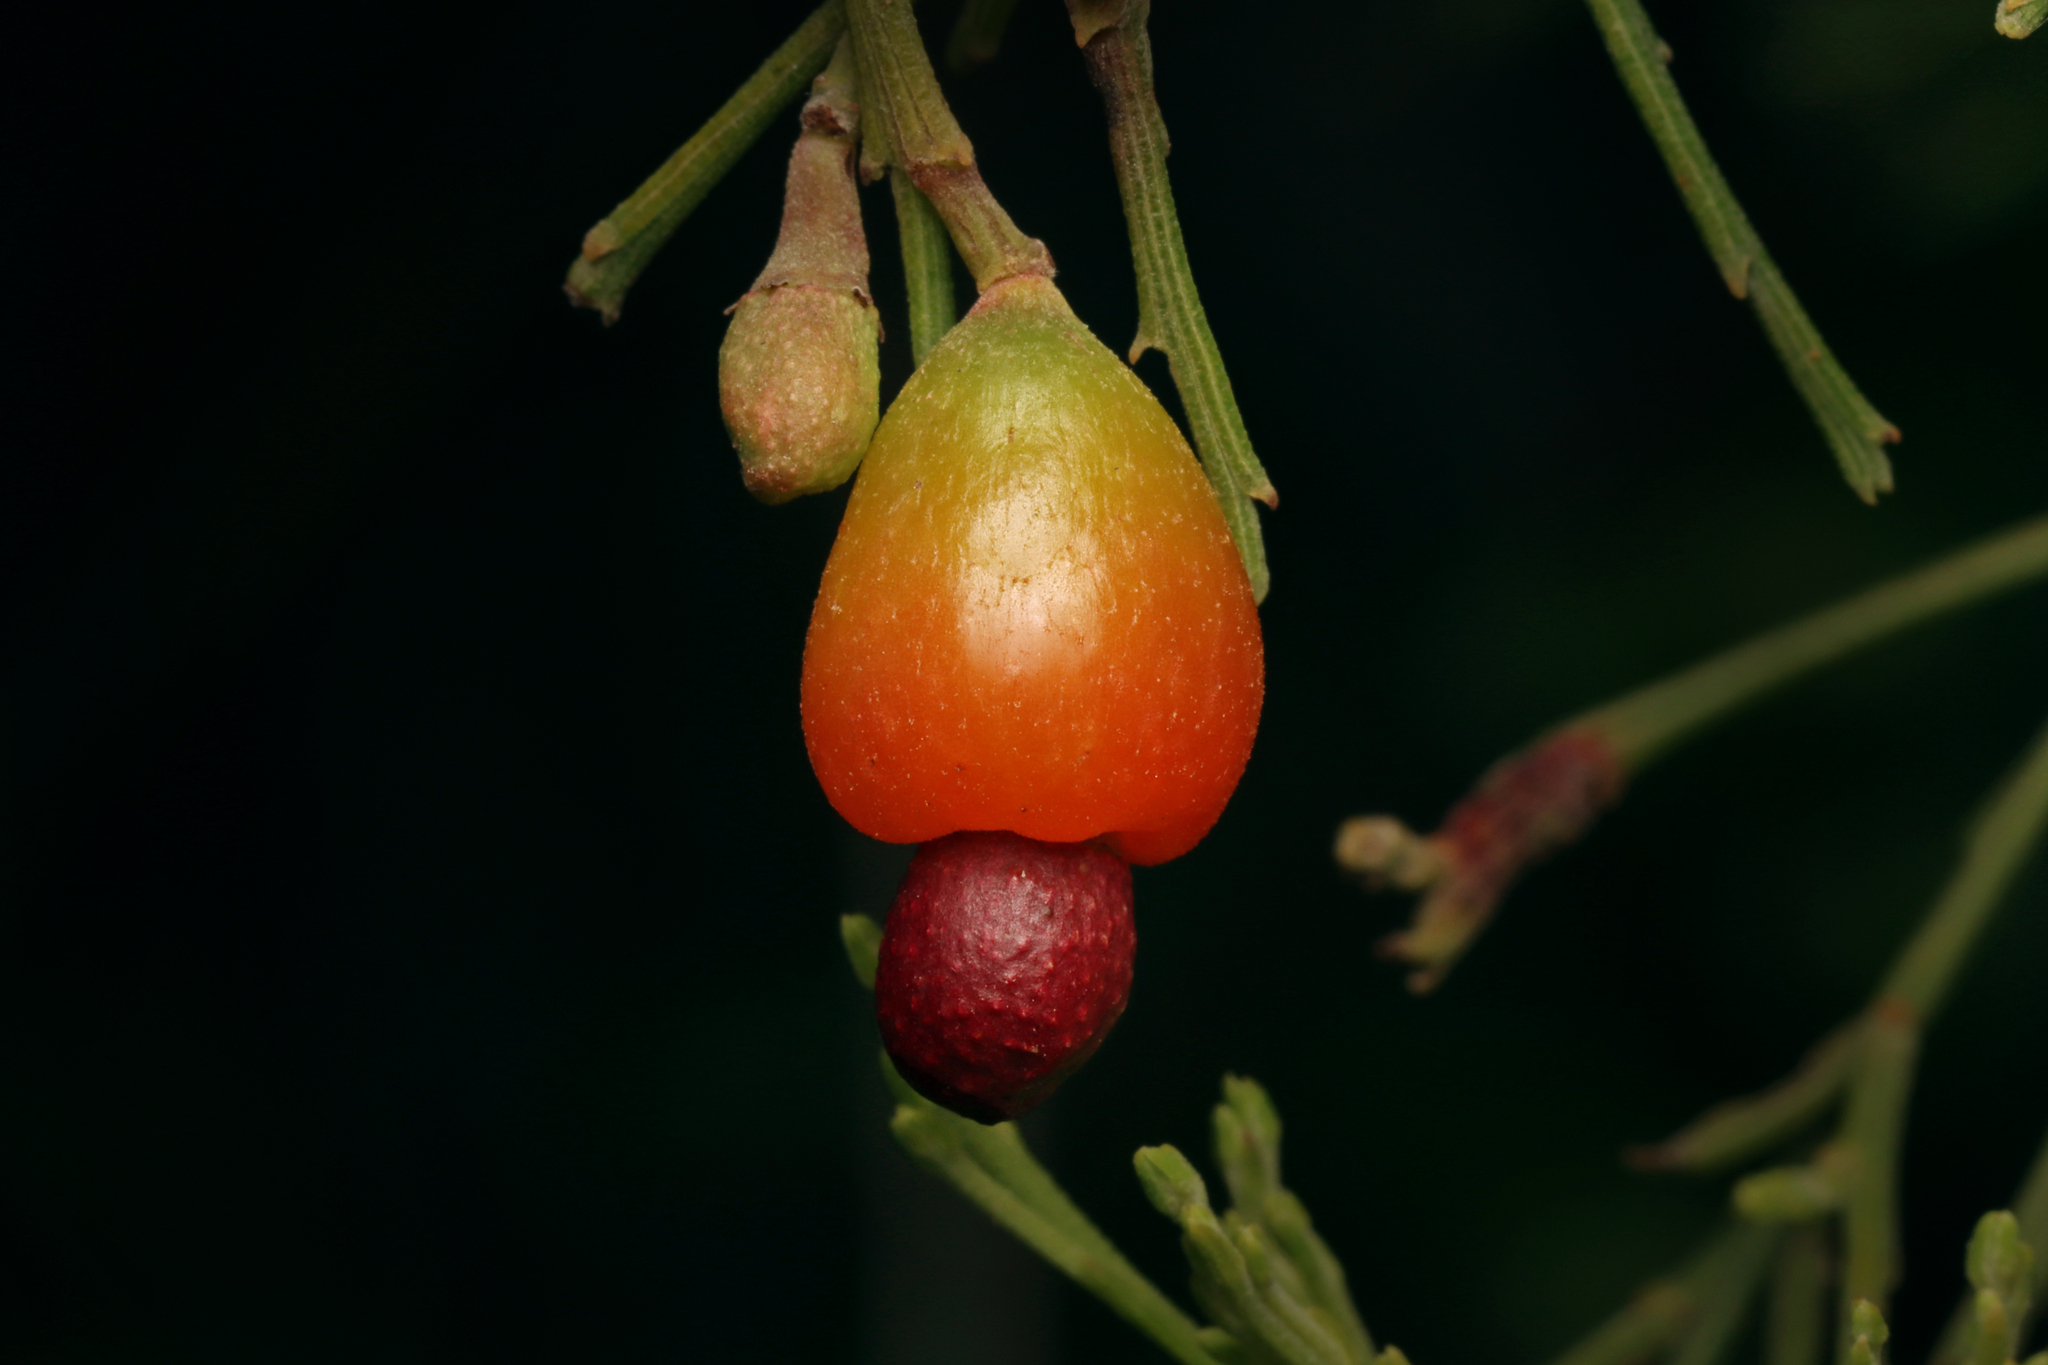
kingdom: Plantae
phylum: Tracheophyta
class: Magnoliopsida
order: Santalales
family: Santalaceae
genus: Exocarpos
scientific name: Exocarpos cupressiformis
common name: Cherry ballart
